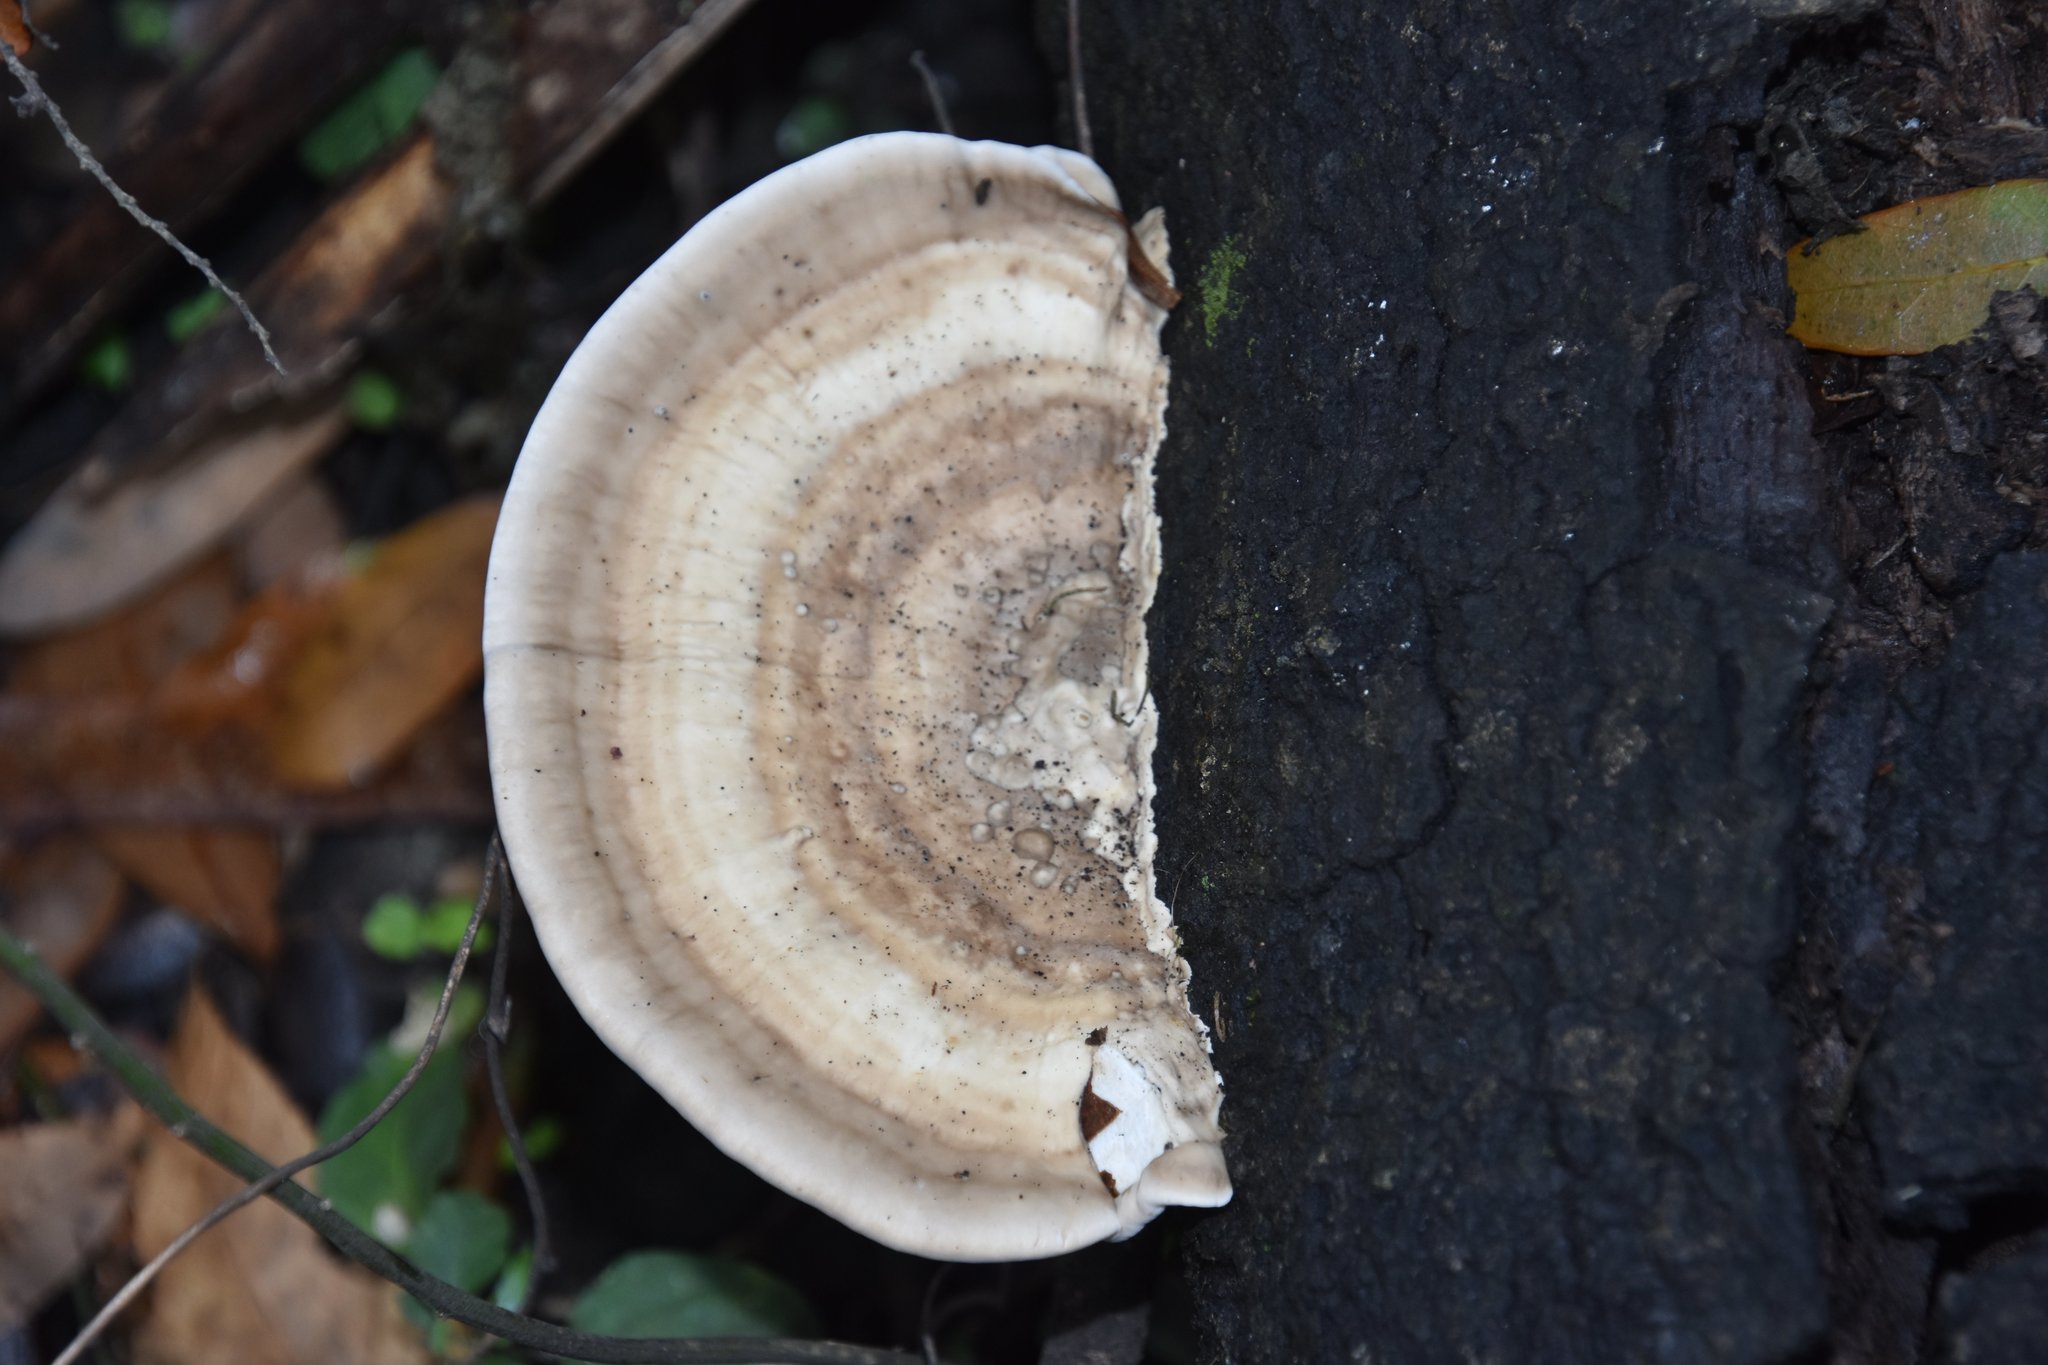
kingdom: Fungi
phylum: Basidiomycota
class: Agaricomycetes
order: Polyporales
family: Polyporaceae
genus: Trametes
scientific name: Trametes lactinea
